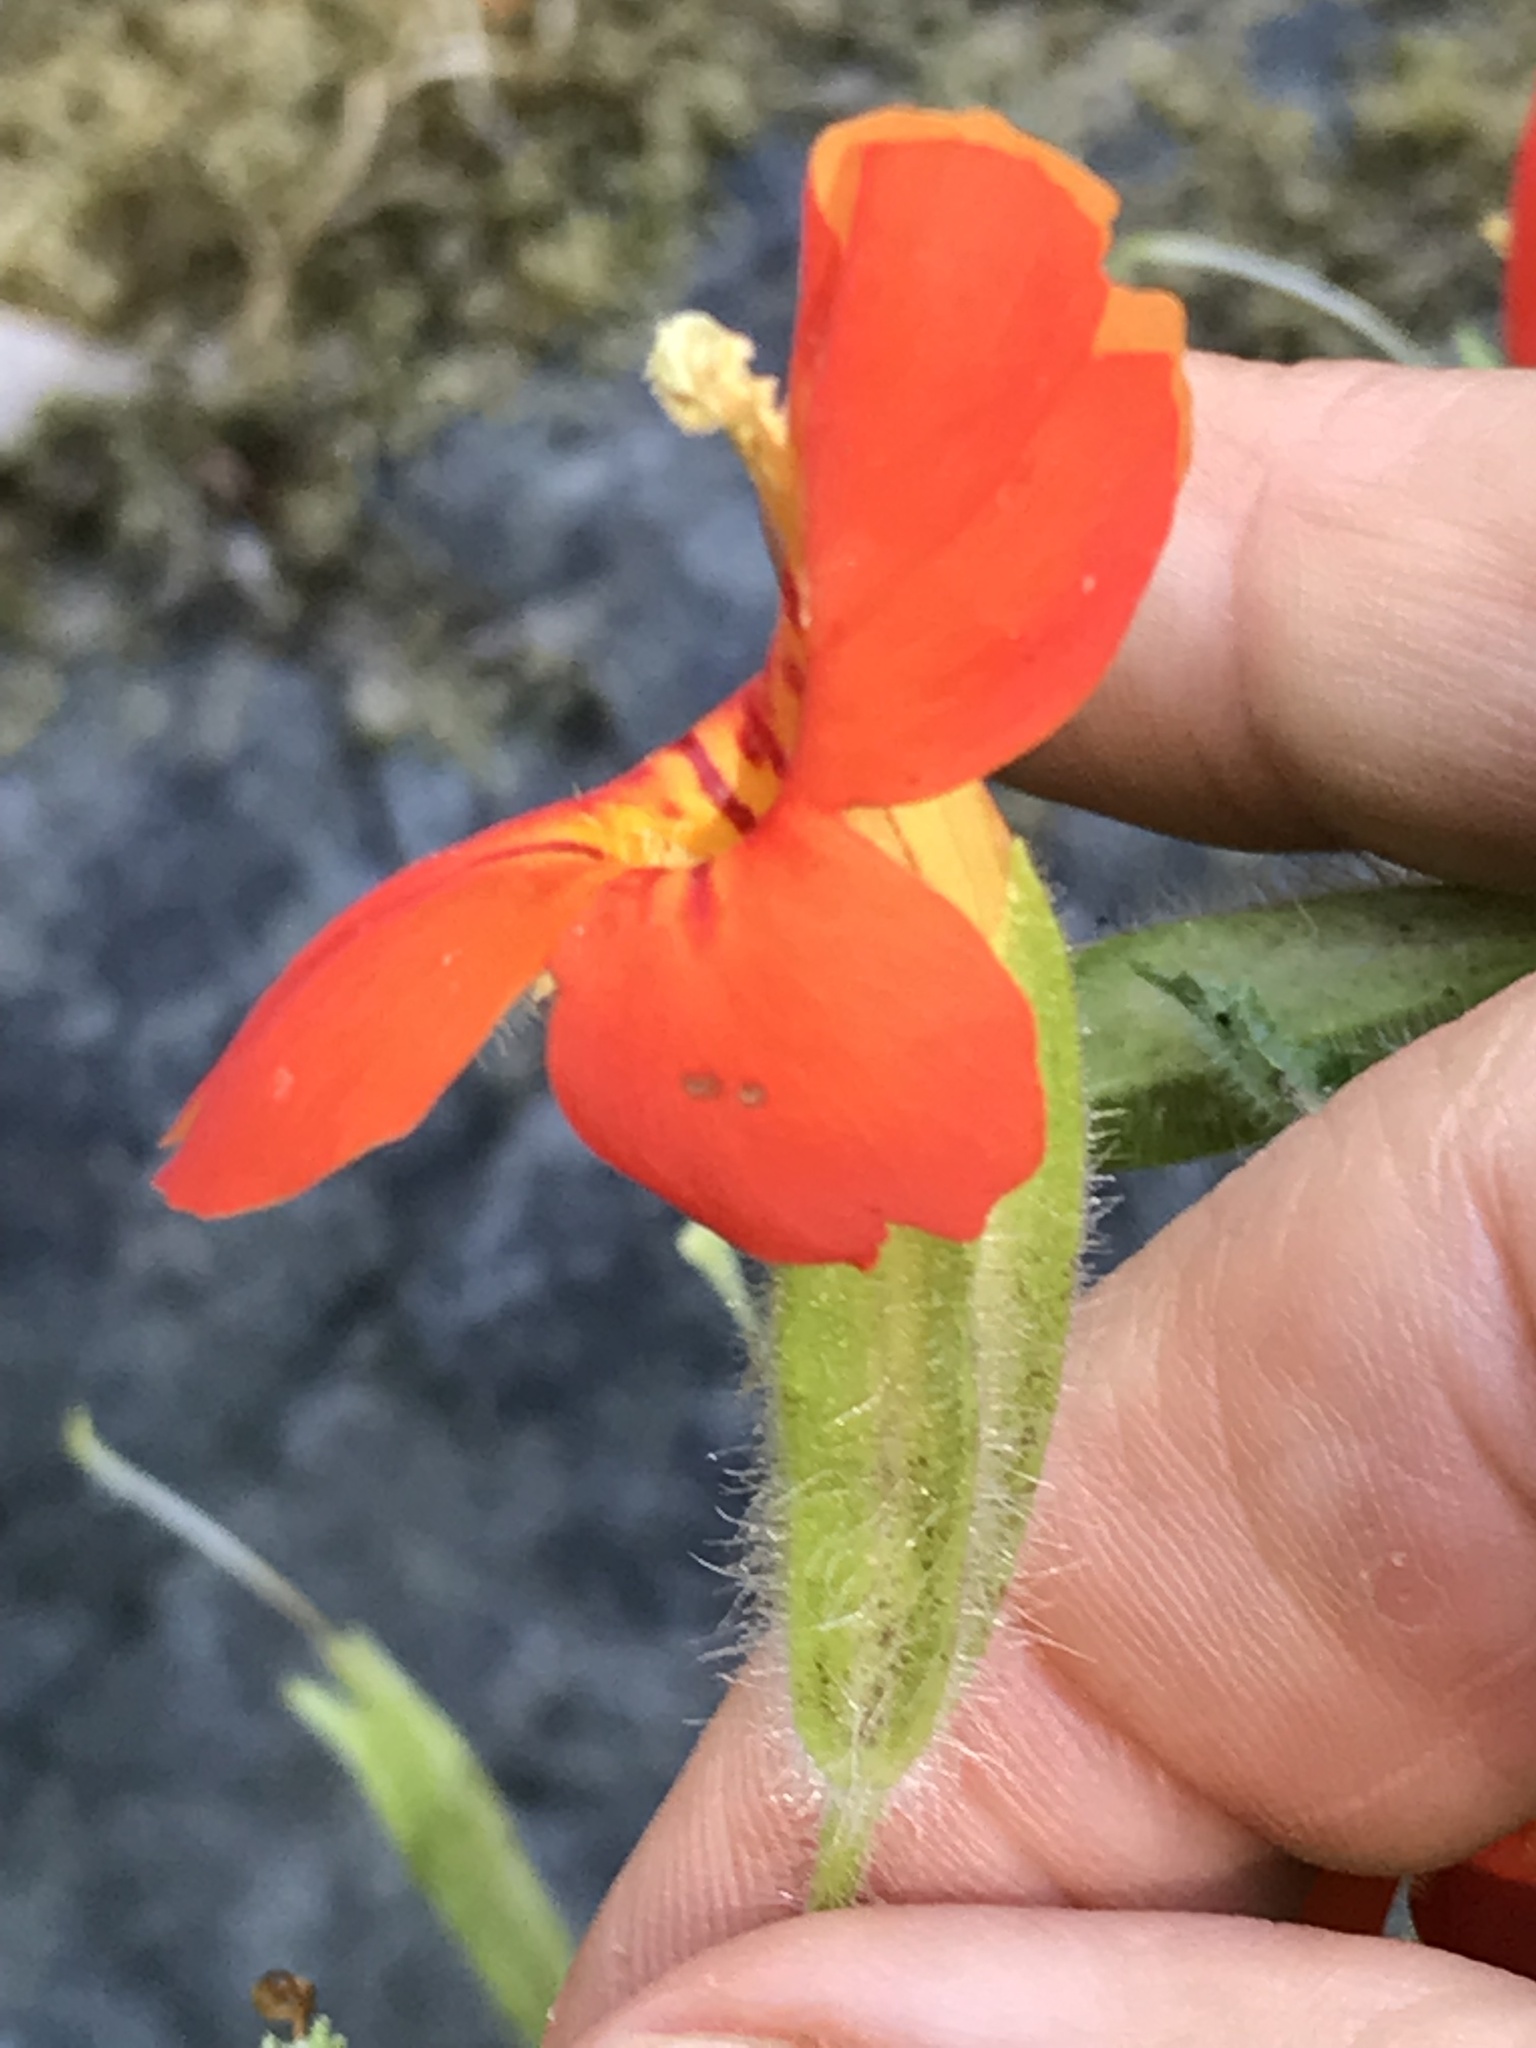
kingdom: Plantae
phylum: Tracheophyta
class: Magnoliopsida
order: Lamiales
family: Phrymaceae
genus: Erythranthe
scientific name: Erythranthe cardinalis
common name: Scarlet monkey-flower
